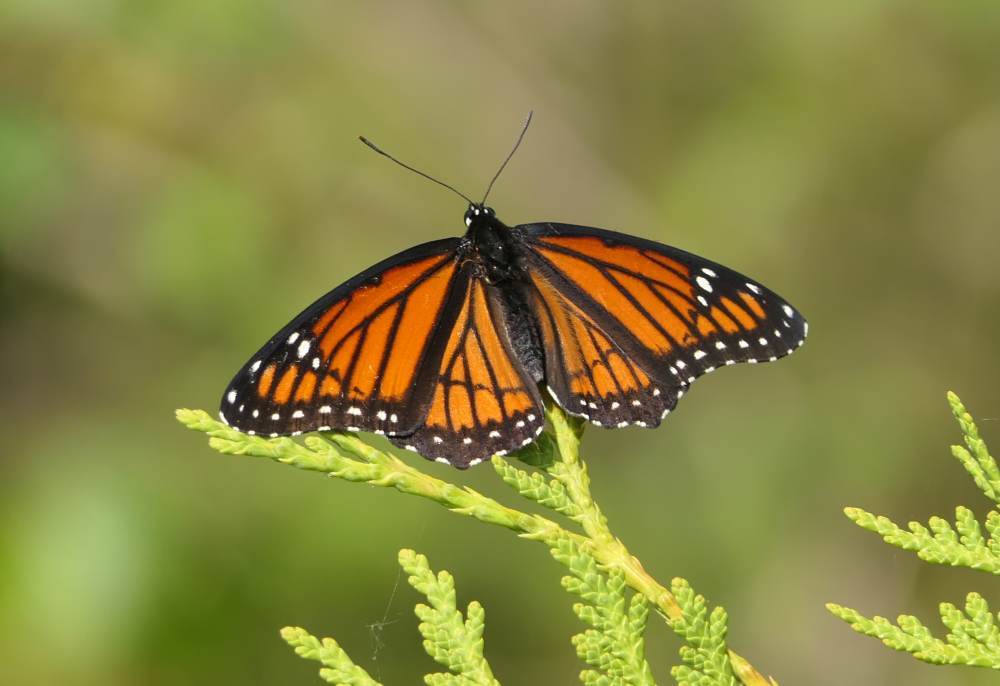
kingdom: Animalia
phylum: Arthropoda
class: Insecta
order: Lepidoptera
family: Nymphalidae
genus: Limenitis
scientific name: Limenitis archippus
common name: Viceroy
